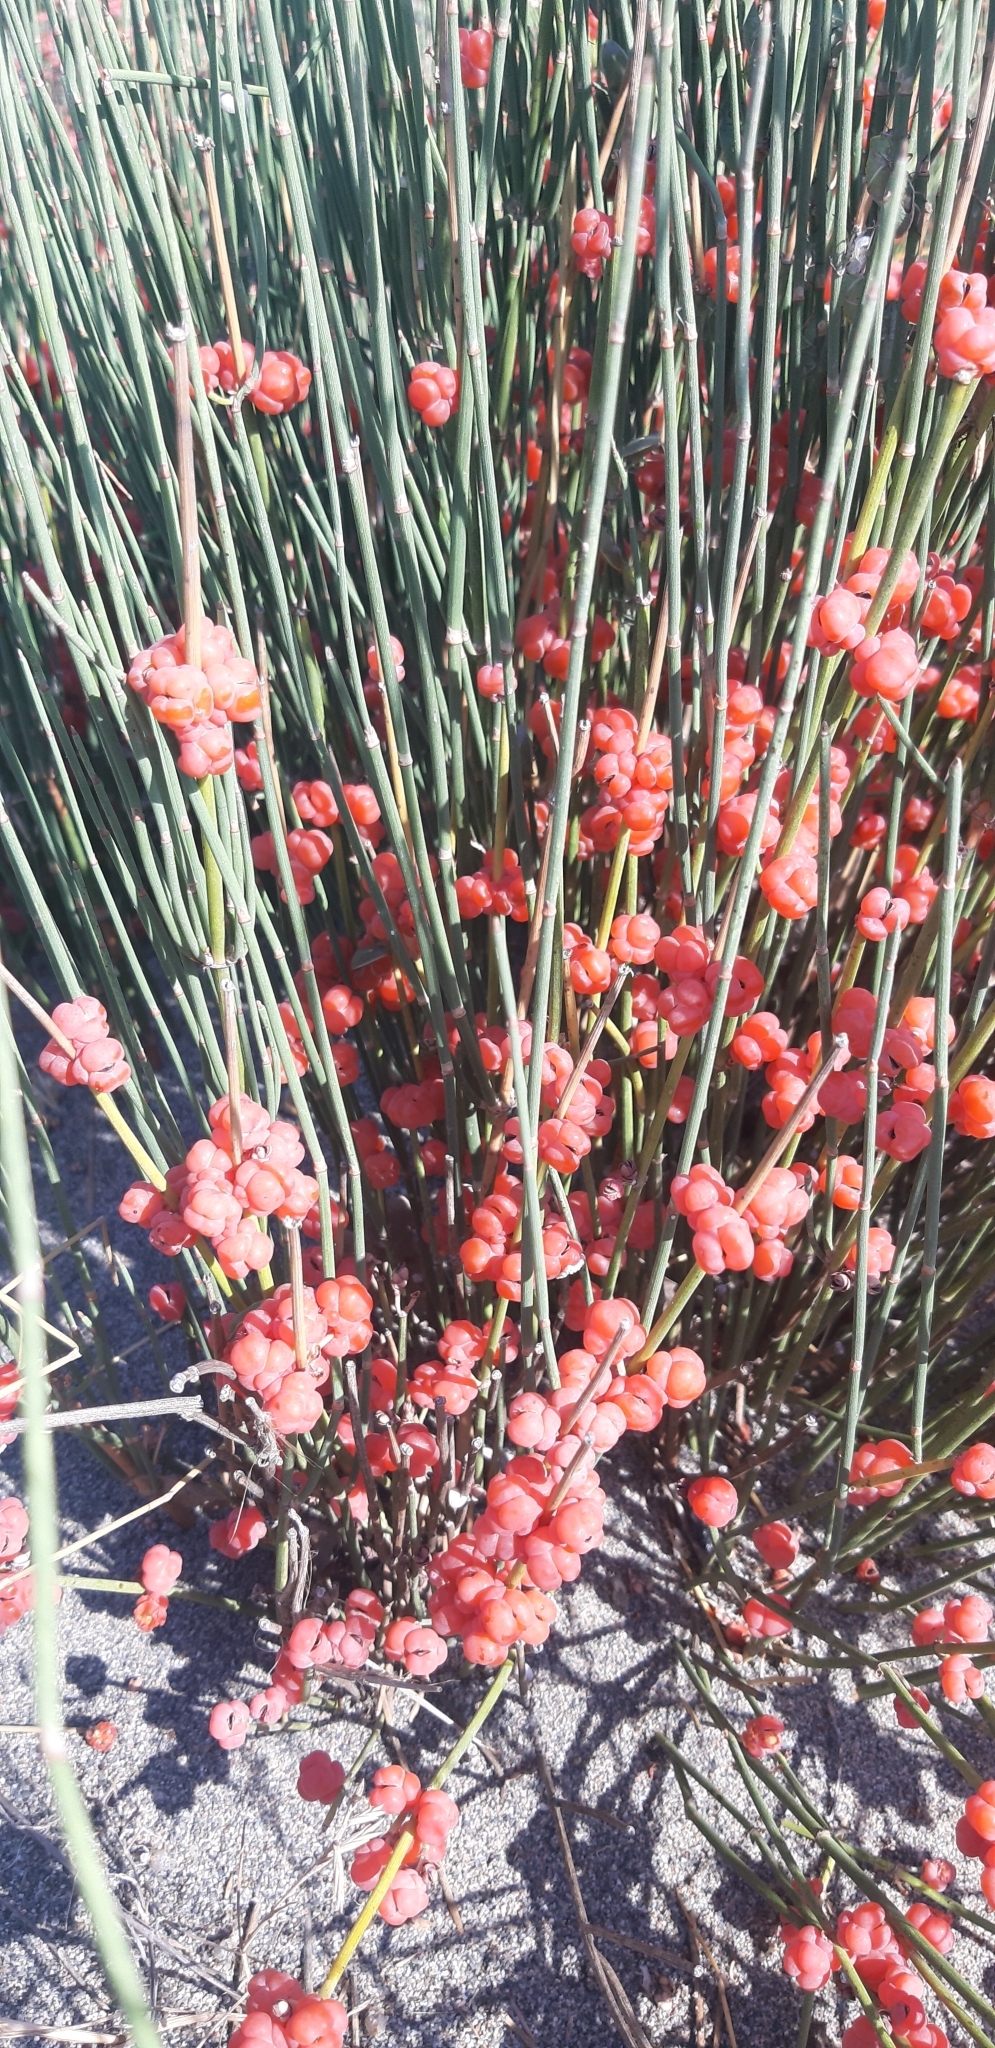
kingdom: Plantae
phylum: Tracheophyta
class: Gnetopsida
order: Ephedrales
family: Ephedraceae
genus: Ephedra
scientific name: Ephedra distachya
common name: Sea grape
